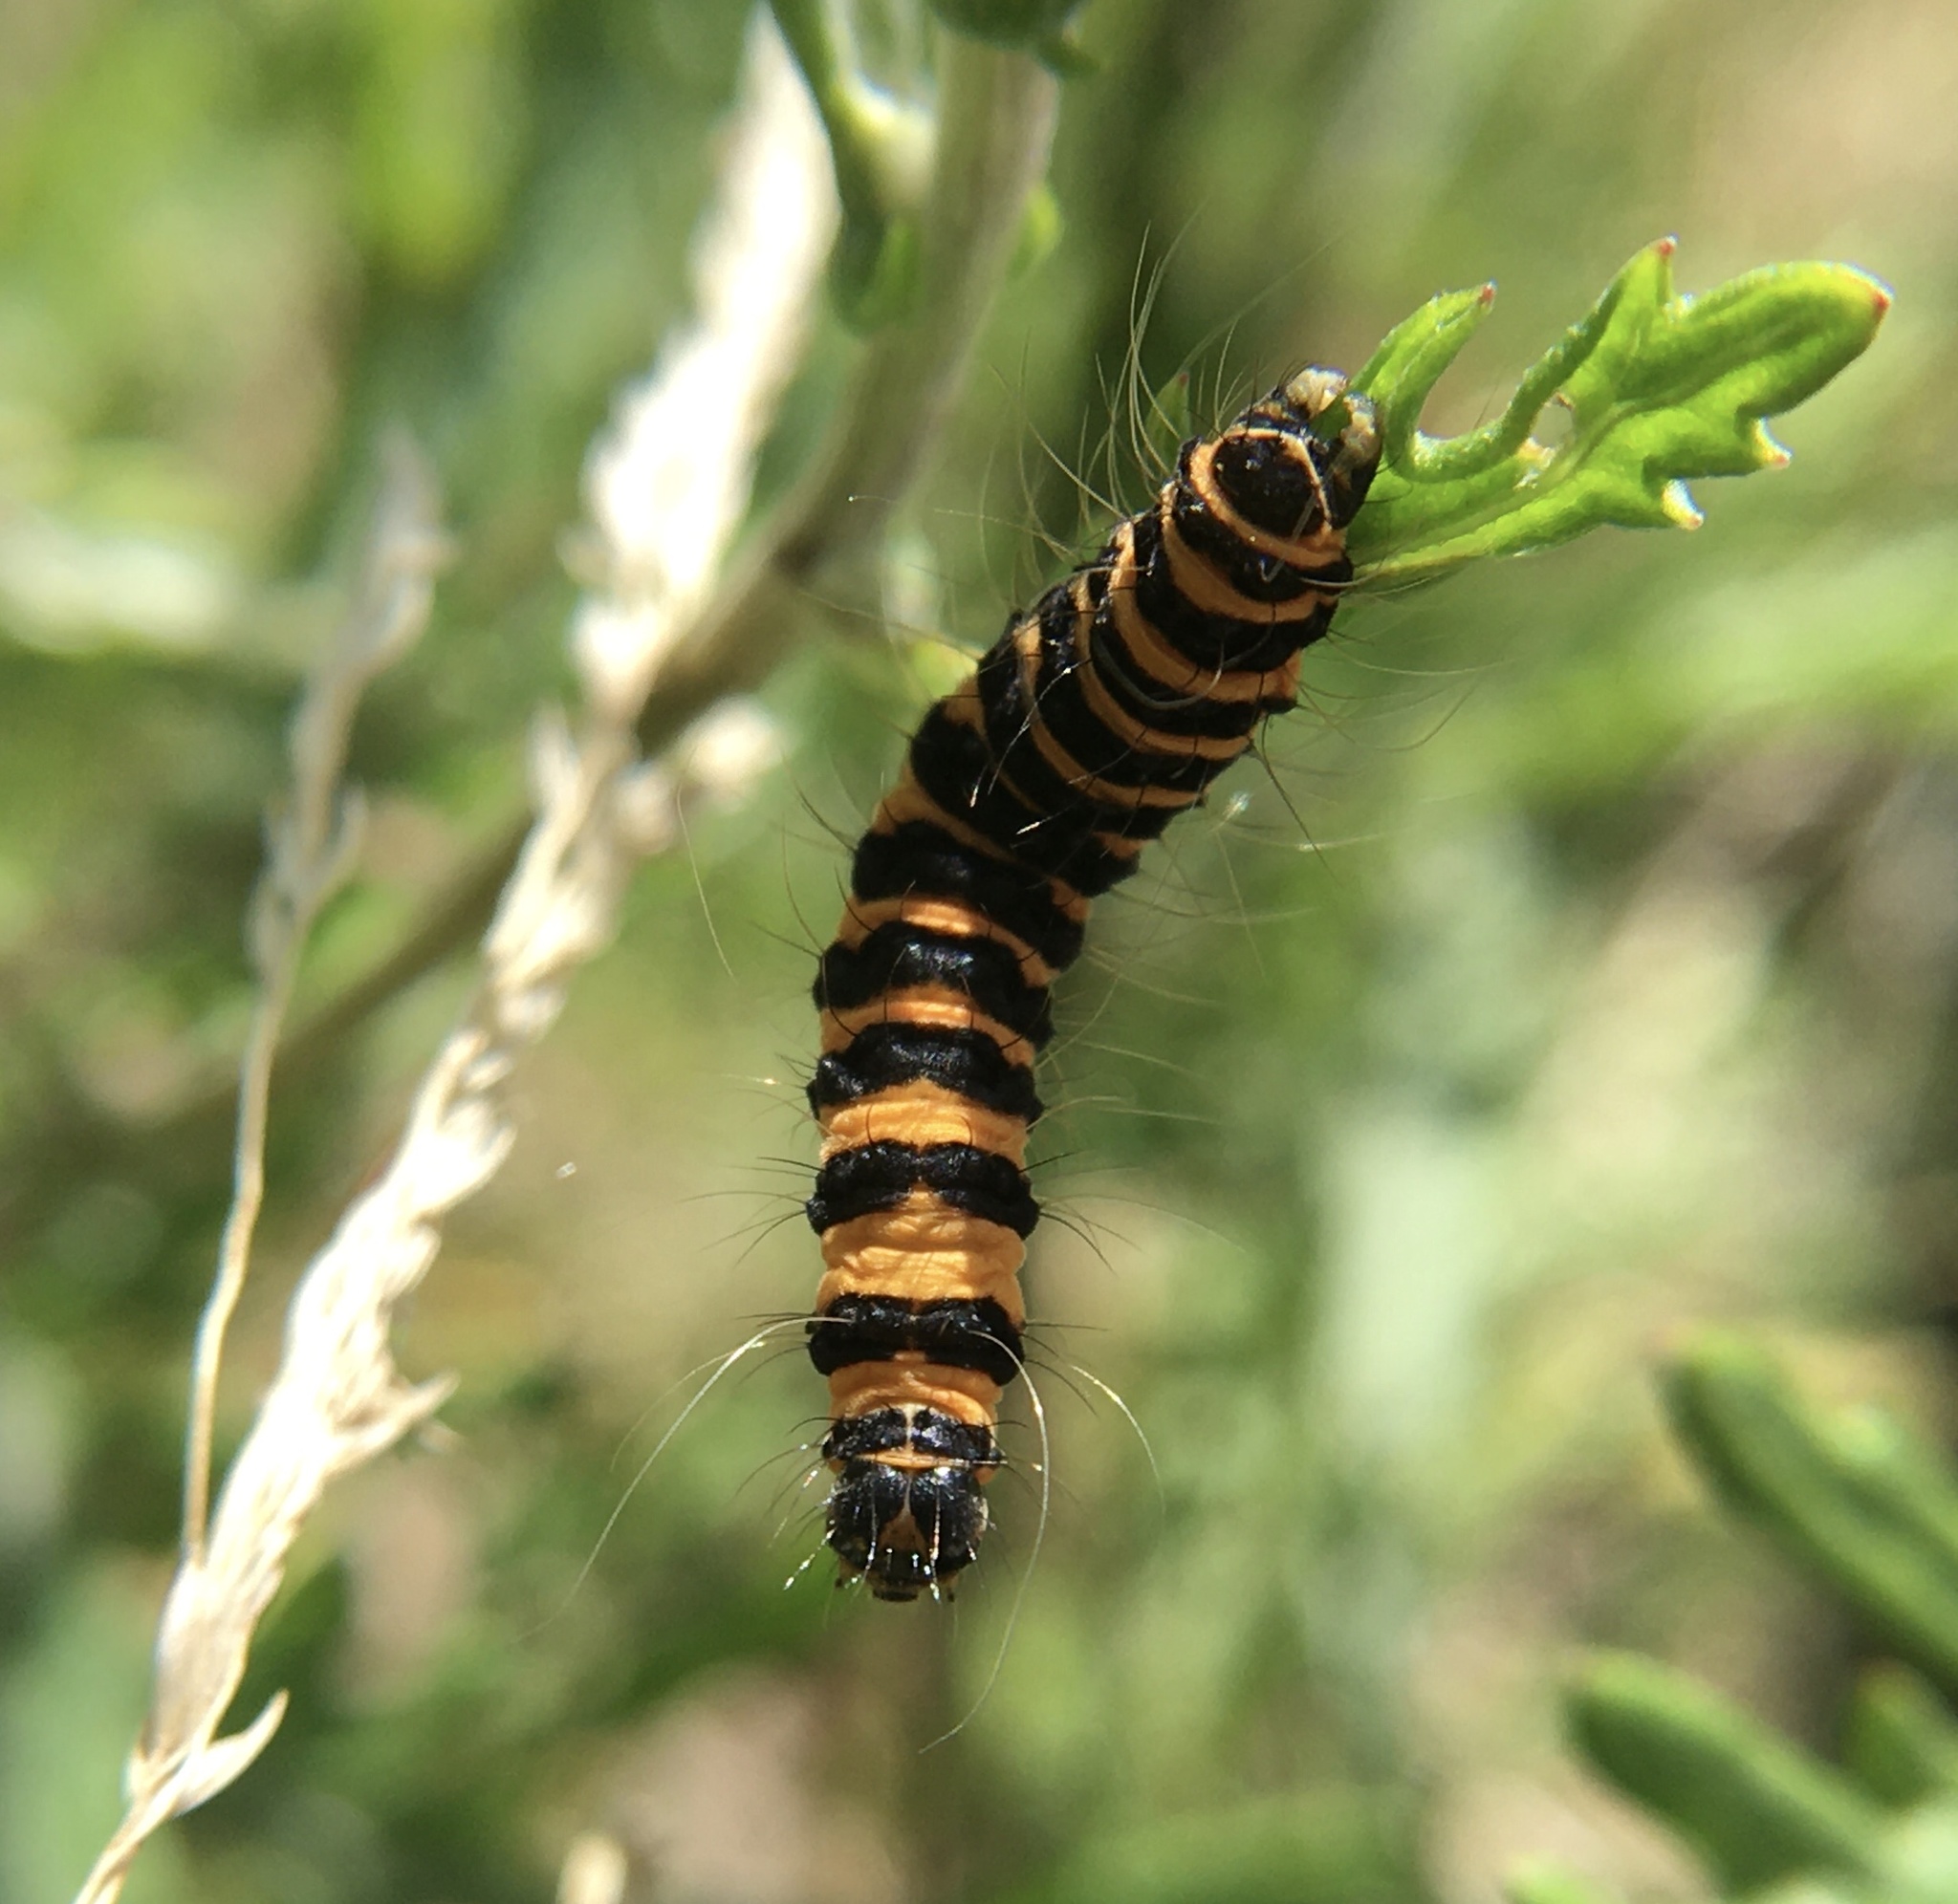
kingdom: Animalia
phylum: Arthropoda
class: Insecta
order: Lepidoptera
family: Erebidae
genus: Tyria
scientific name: Tyria jacobaeae
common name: Cinnabar
